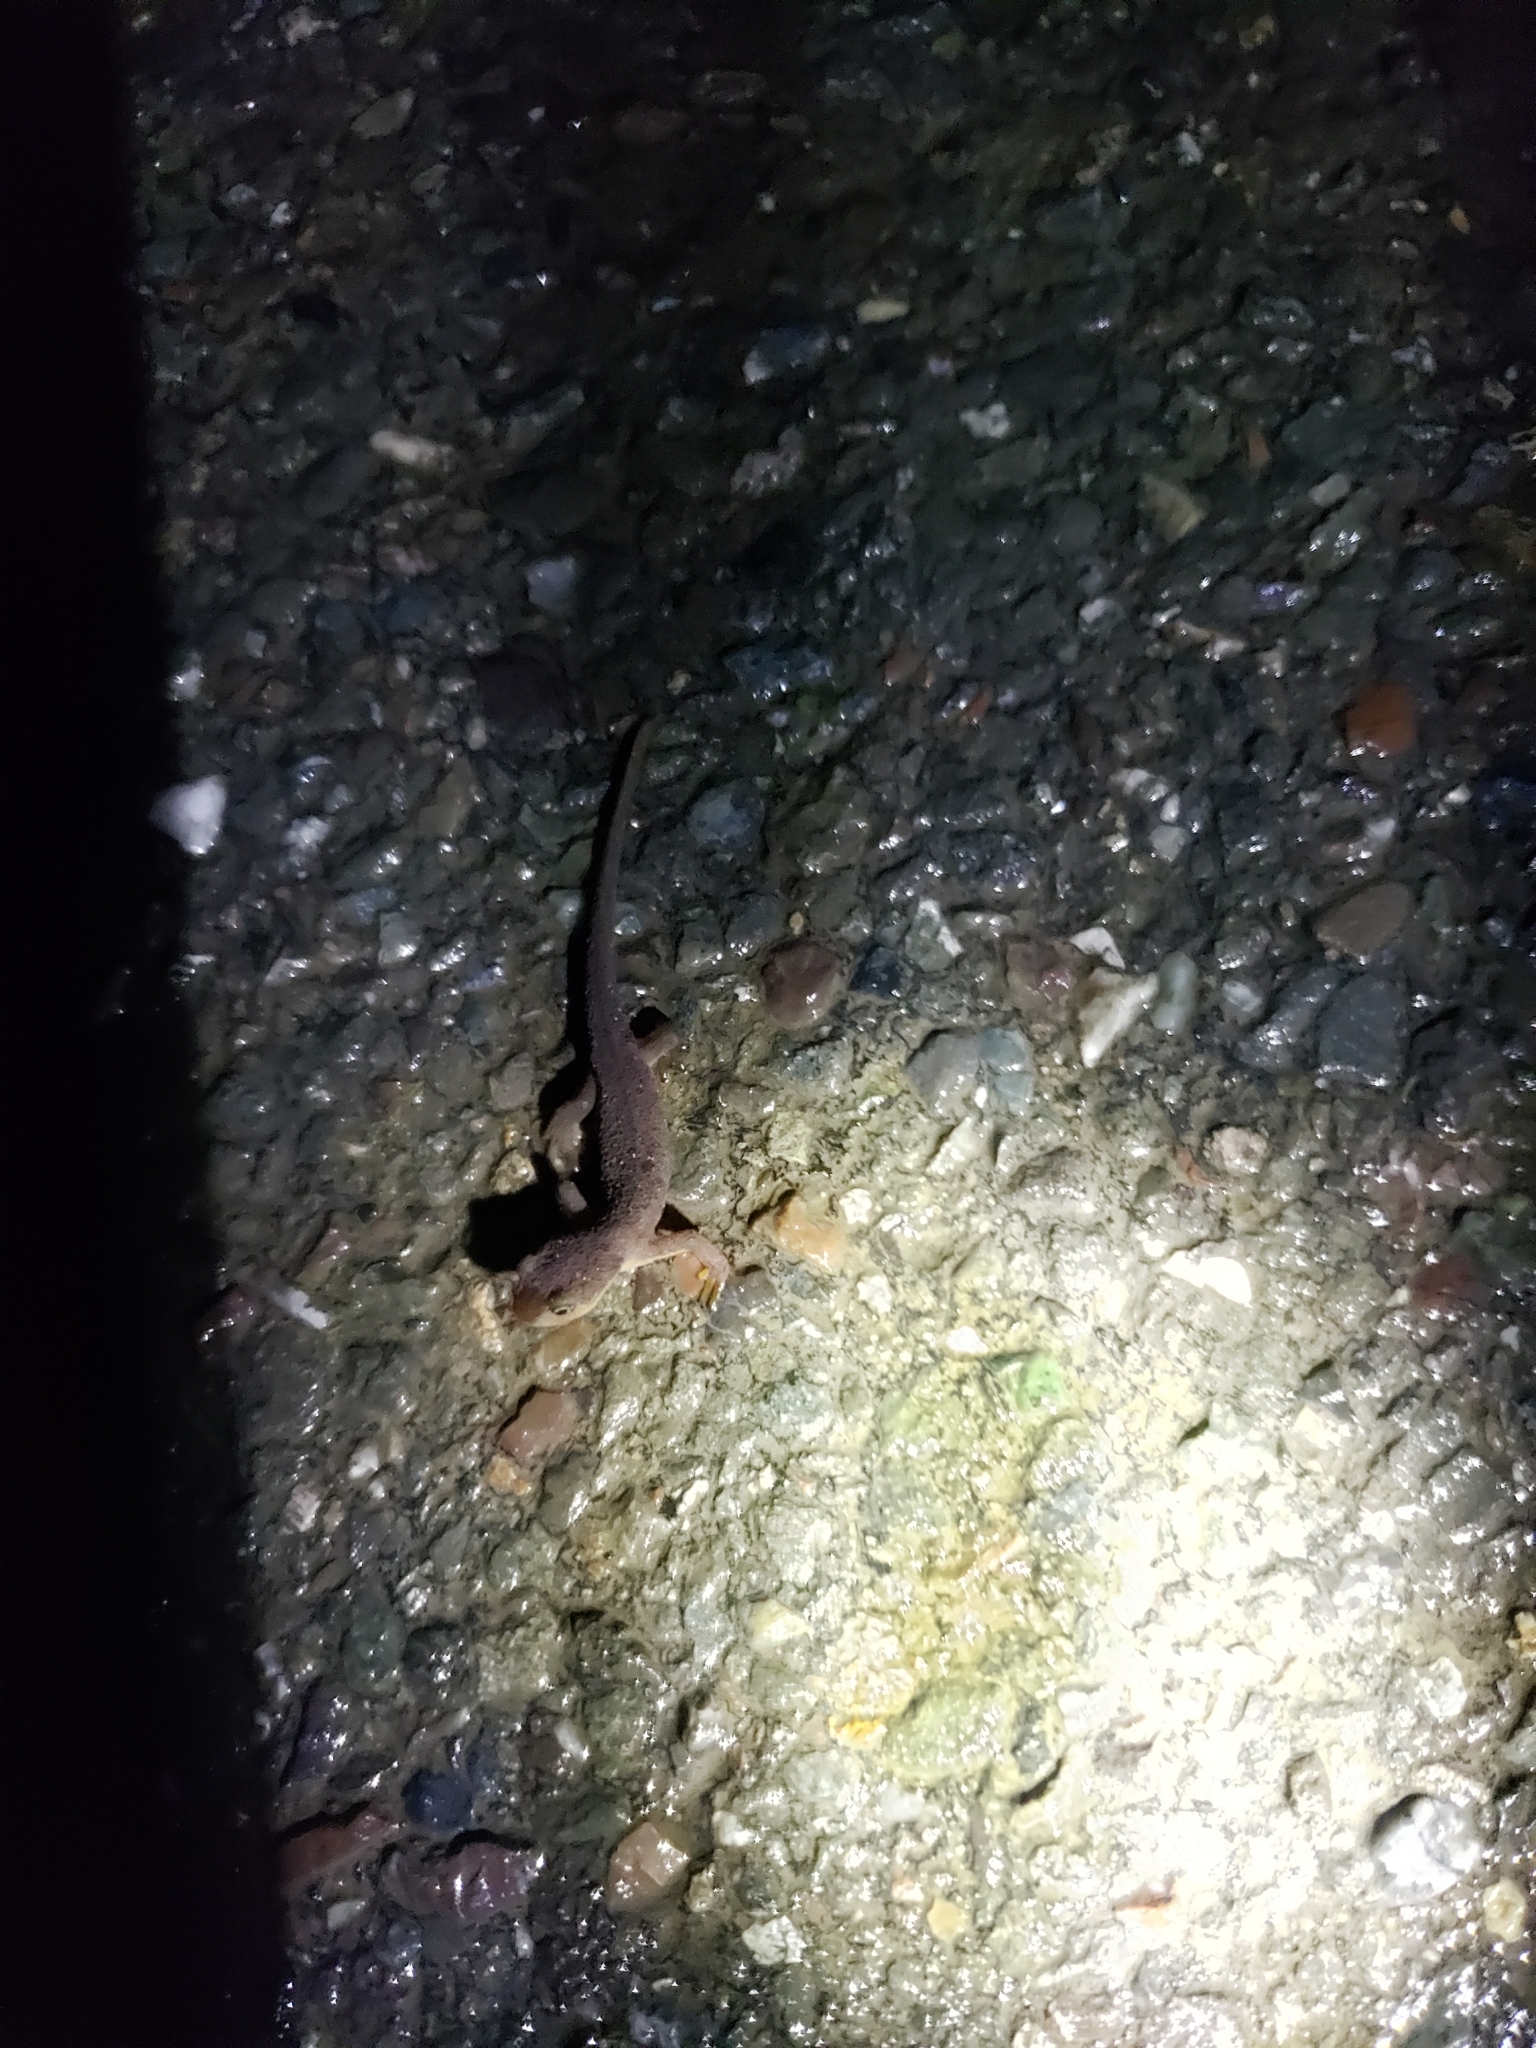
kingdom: Animalia
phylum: Chordata
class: Amphibia
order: Caudata
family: Salamandridae
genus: Taricha
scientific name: Taricha torosa
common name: California newt
